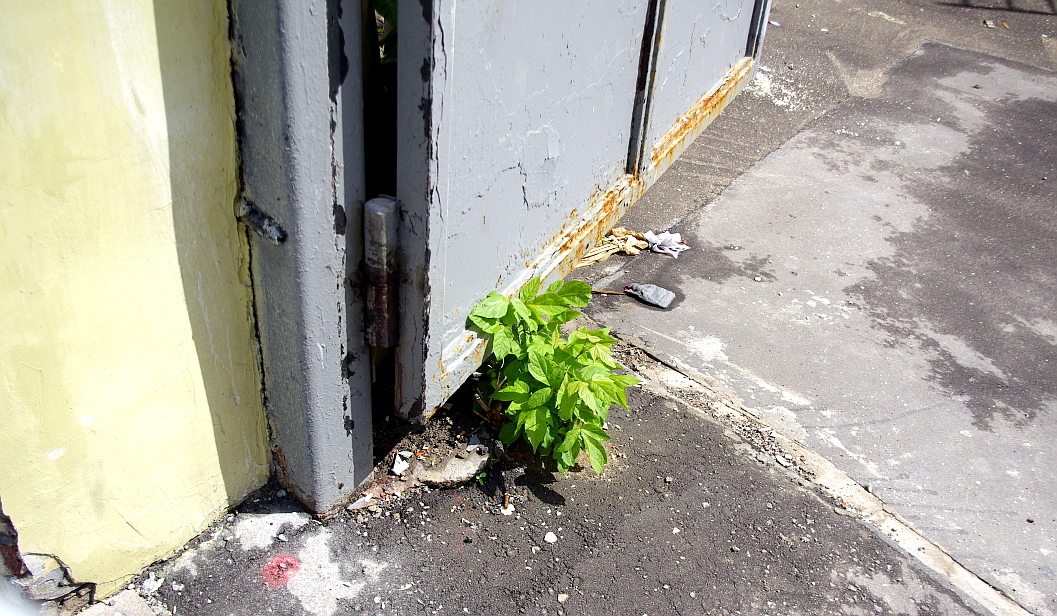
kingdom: Plantae
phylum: Tracheophyta
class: Magnoliopsida
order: Sapindales
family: Sapindaceae
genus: Acer
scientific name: Acer negundo
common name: Ashleaf maple
